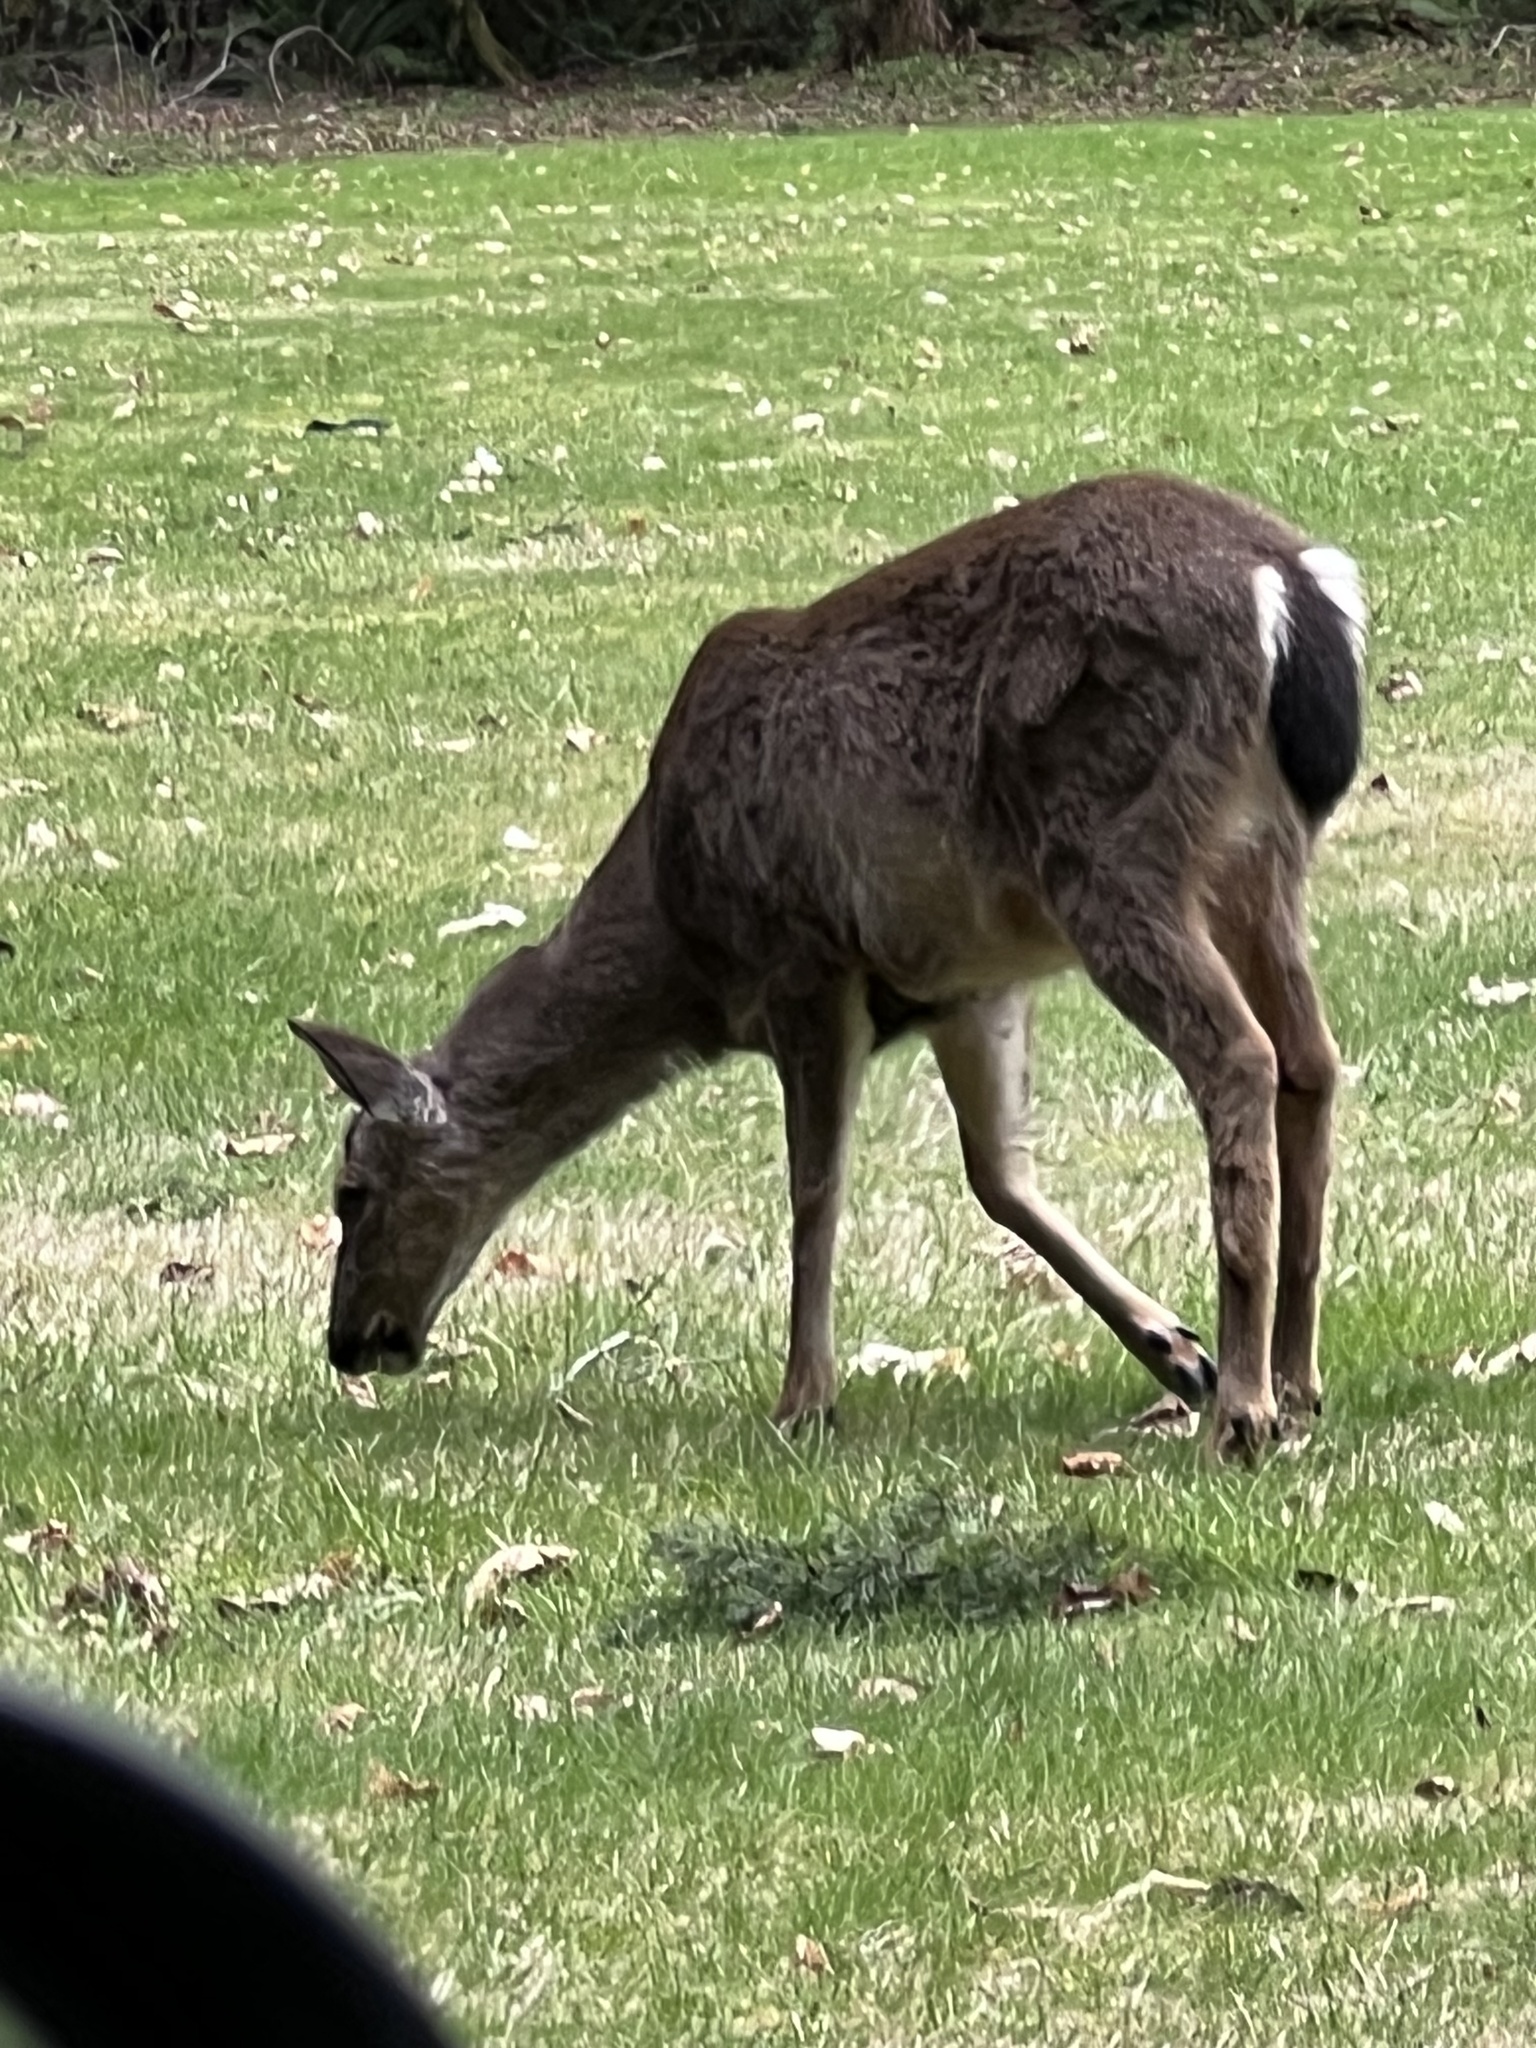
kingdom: Animalia
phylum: Chordata
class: Mammalia
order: Artiodactyla
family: Cervidae
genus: Odocoileus
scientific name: Odocoileus hemionus
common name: Mule deer
